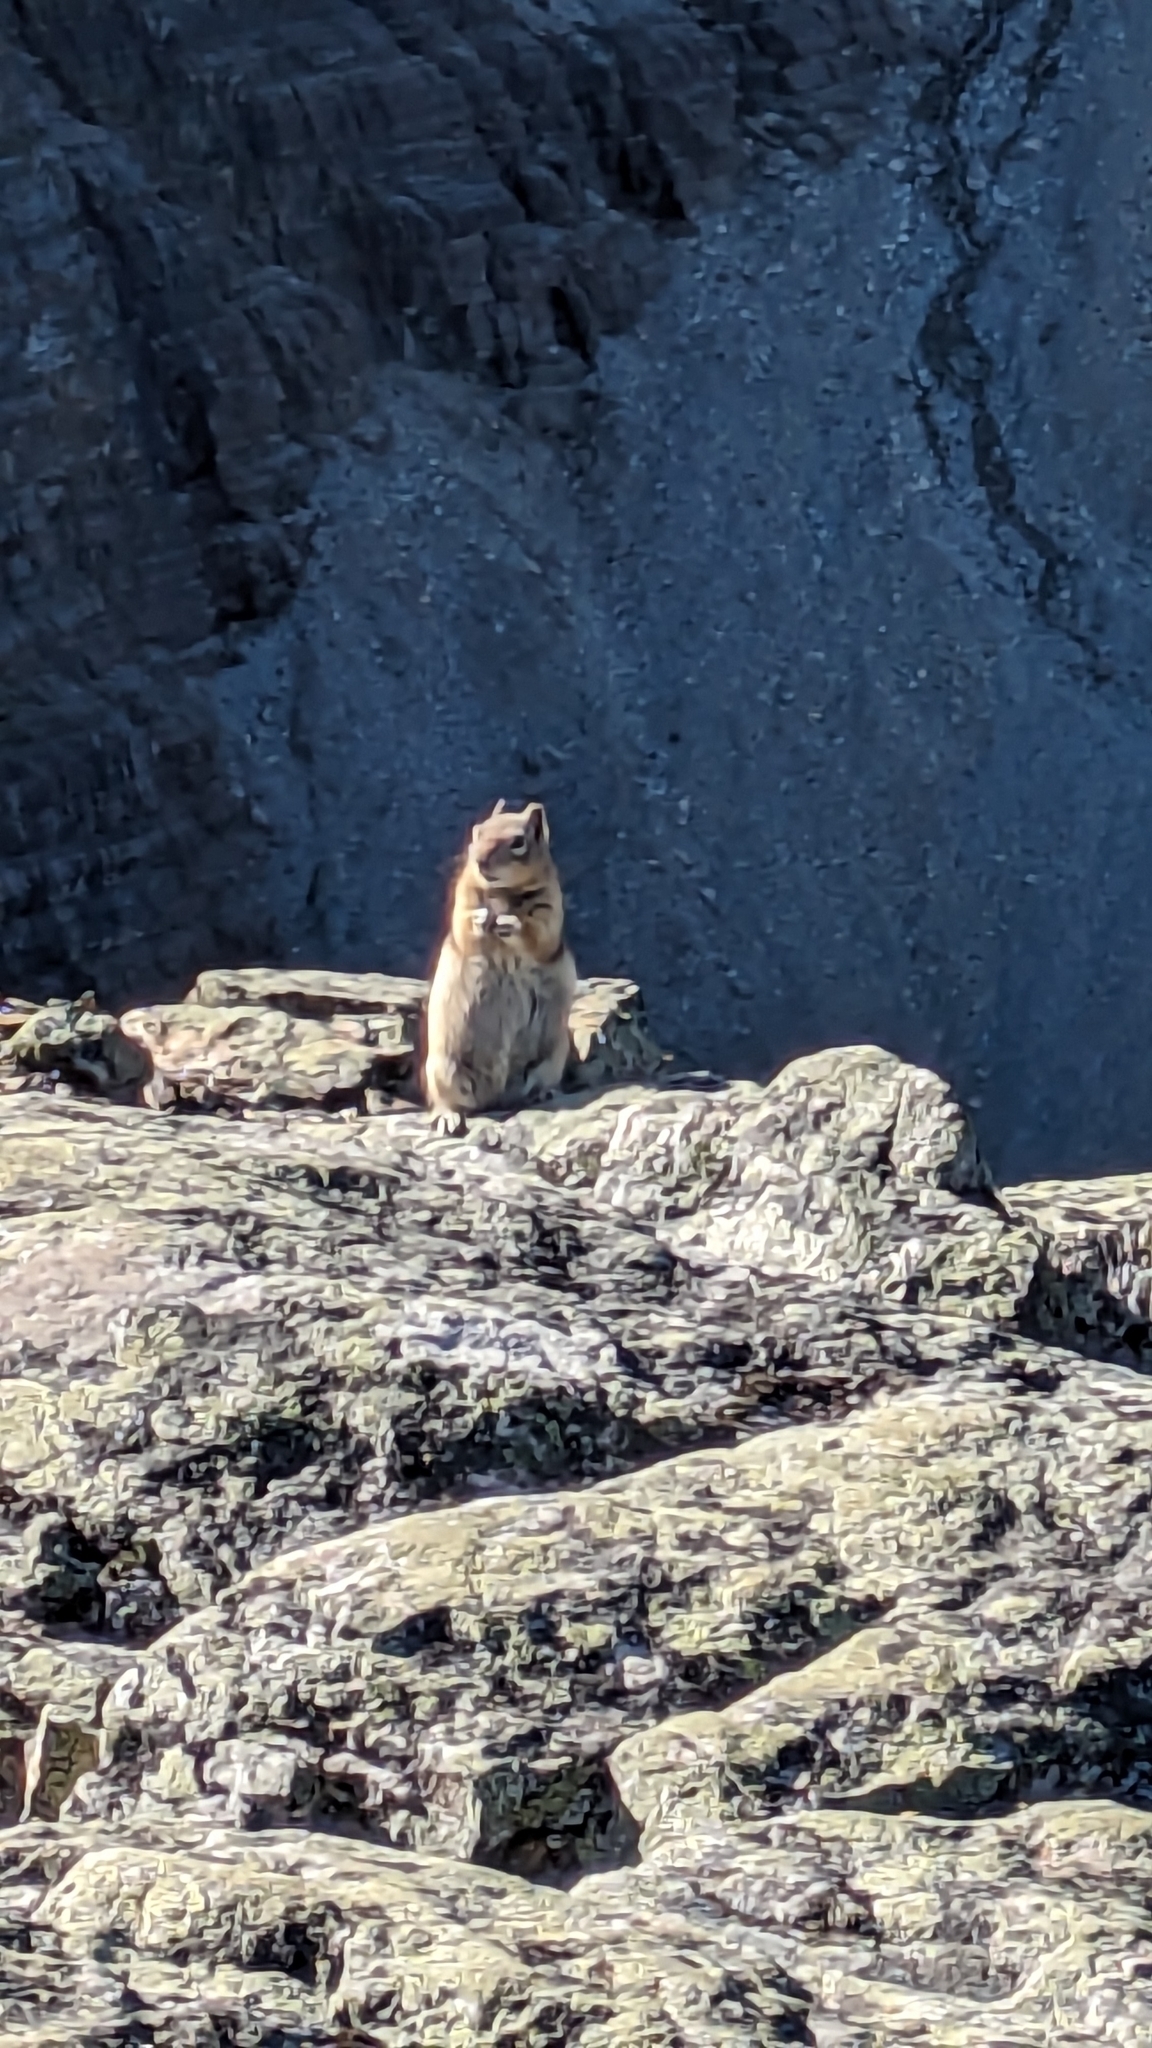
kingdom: Animalia
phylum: Chordata
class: Mammalia
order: Rodentia
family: Sciuridae
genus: Callospermophilus
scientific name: Callospermophilus lateralis
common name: Golden-mantled ground squirrel
